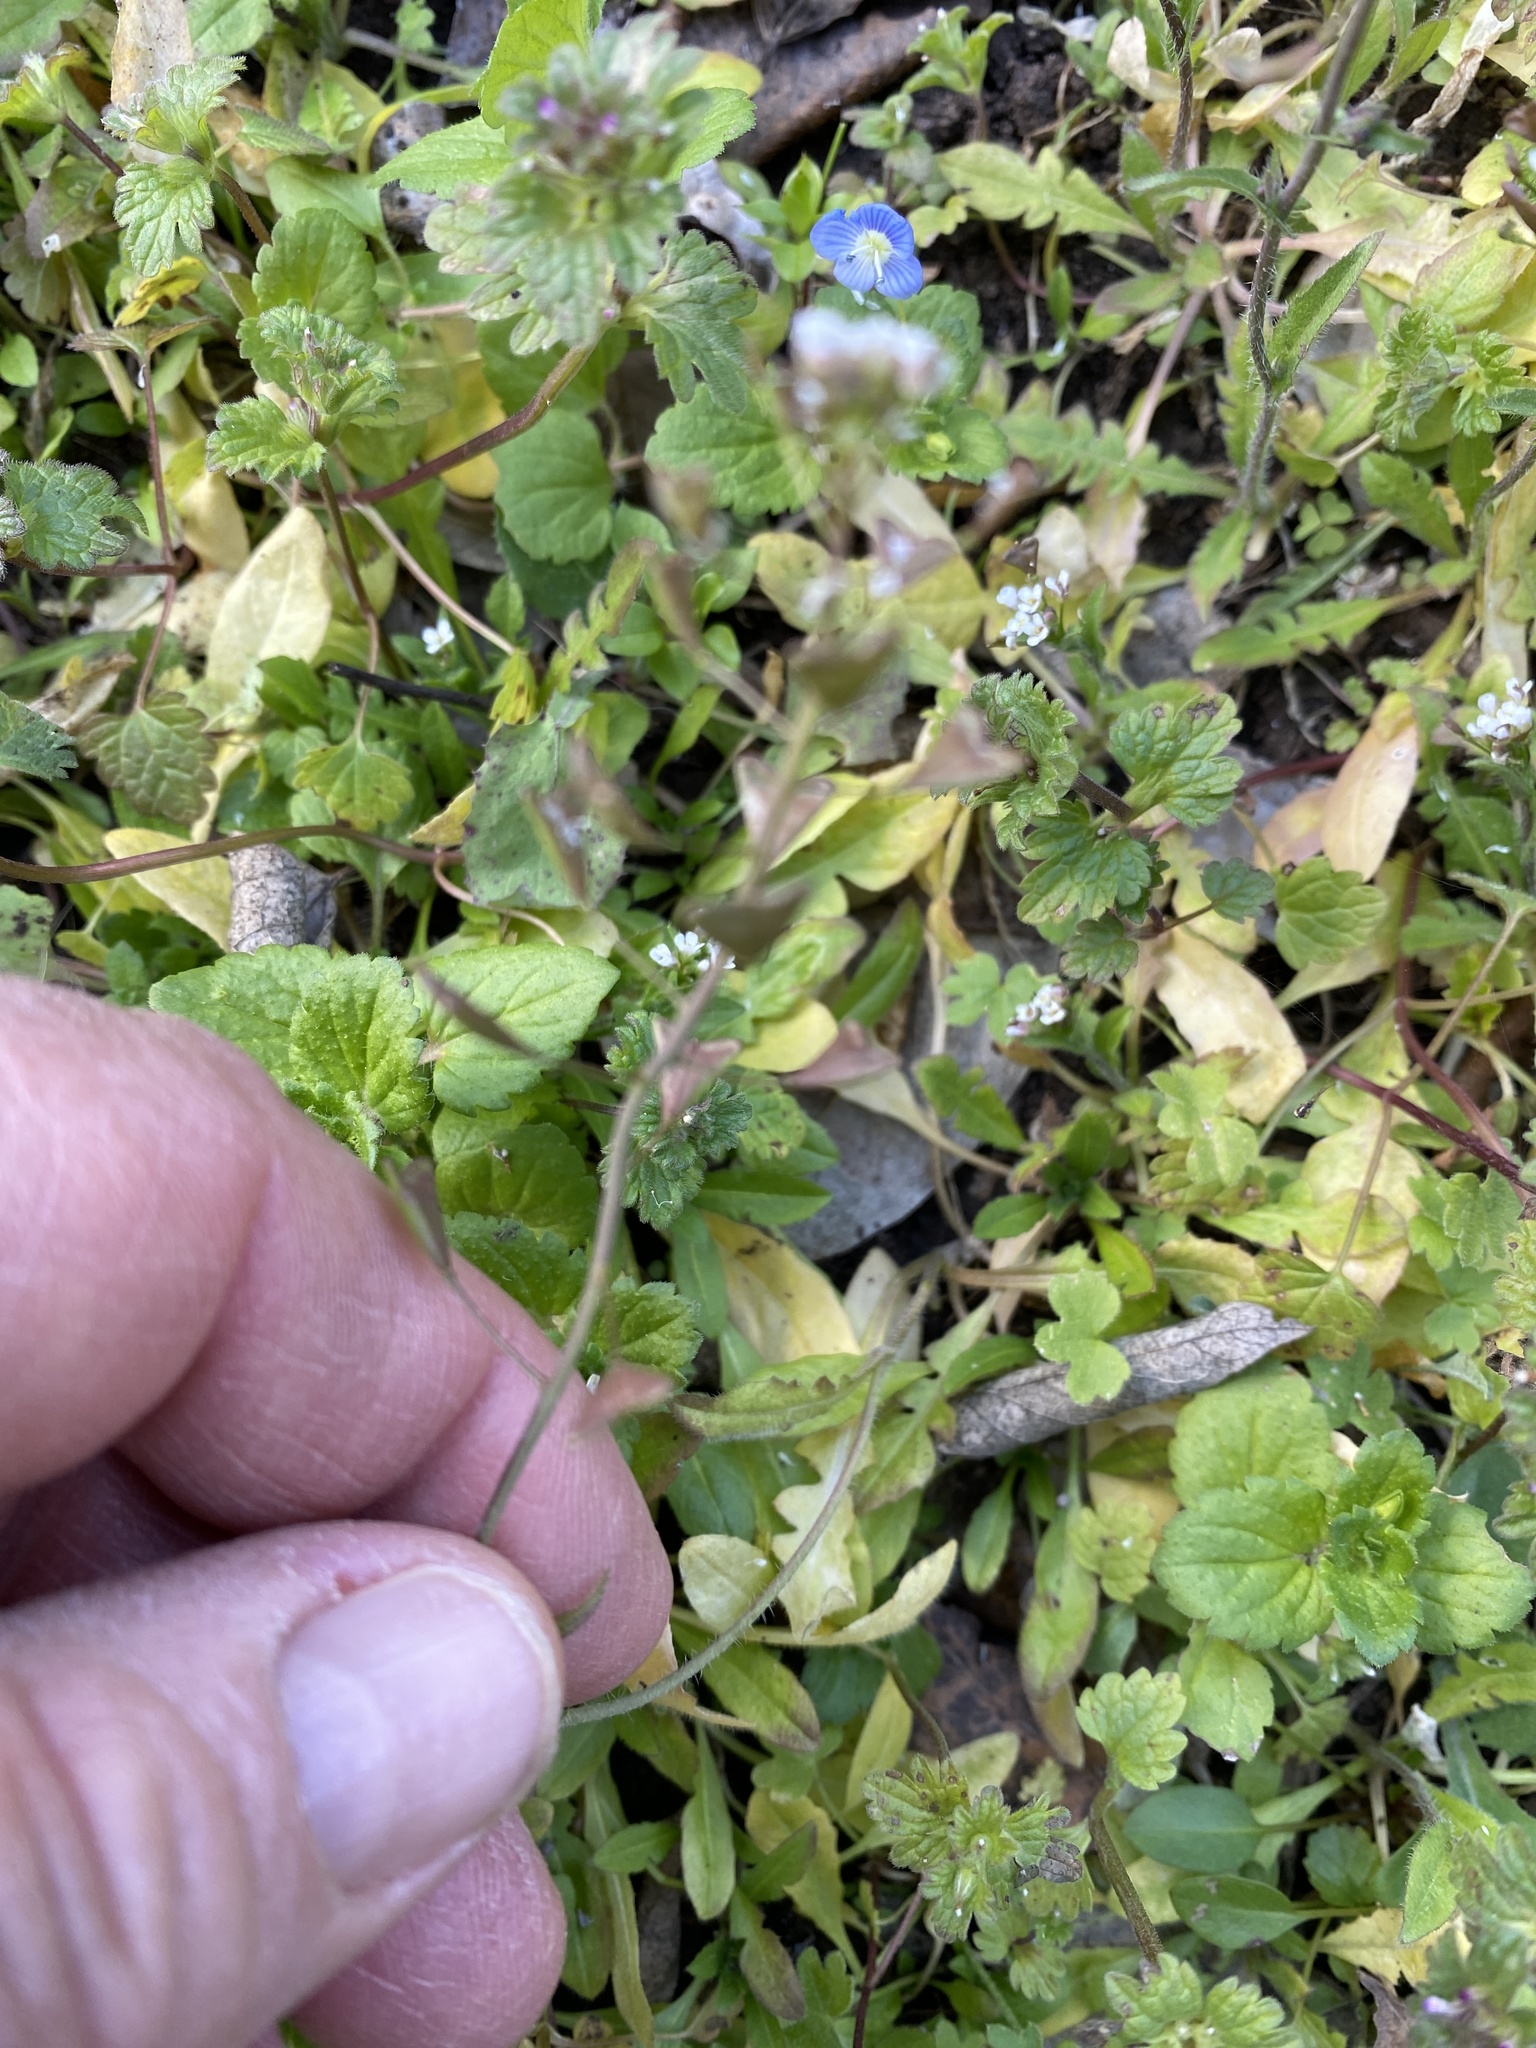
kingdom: Plantae
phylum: Tracheophyta
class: Magnoliopsida
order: Brassicales
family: Brassicaceae
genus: Capsella
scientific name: Capsella bursa-pastoris
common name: Shepherd's purse
